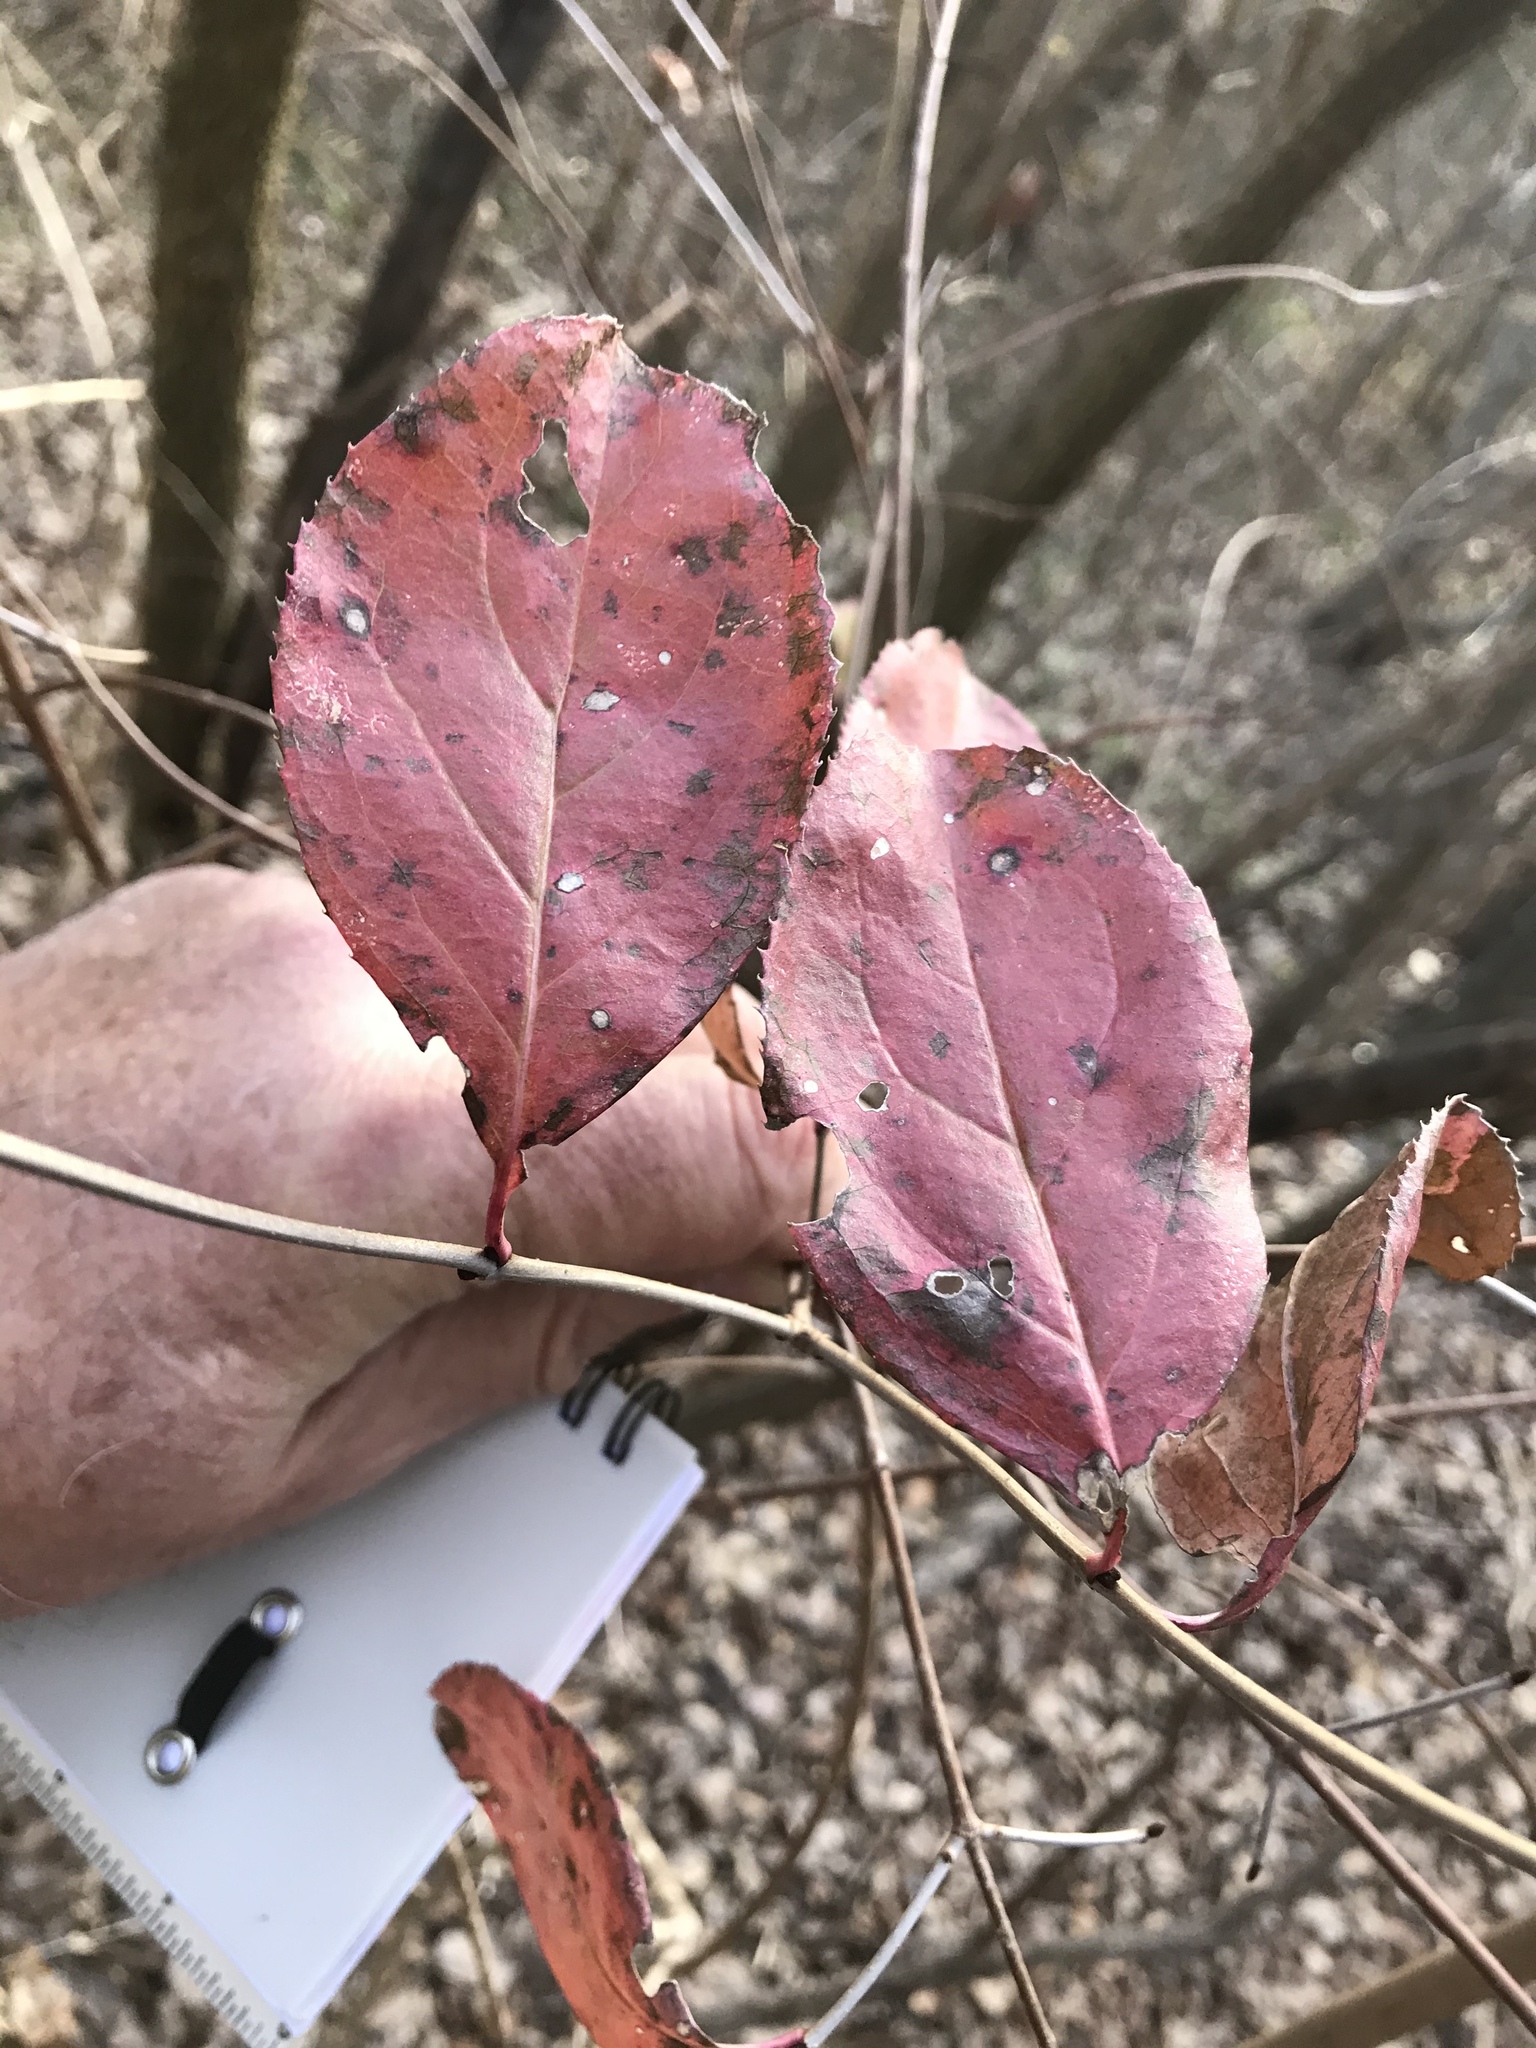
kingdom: Plantae
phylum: Tracheophyta
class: Magnoliopsida
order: Dipsacales
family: Viburnaceae
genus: Viburnum
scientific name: Viburnum rufidulum
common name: Blue haw
